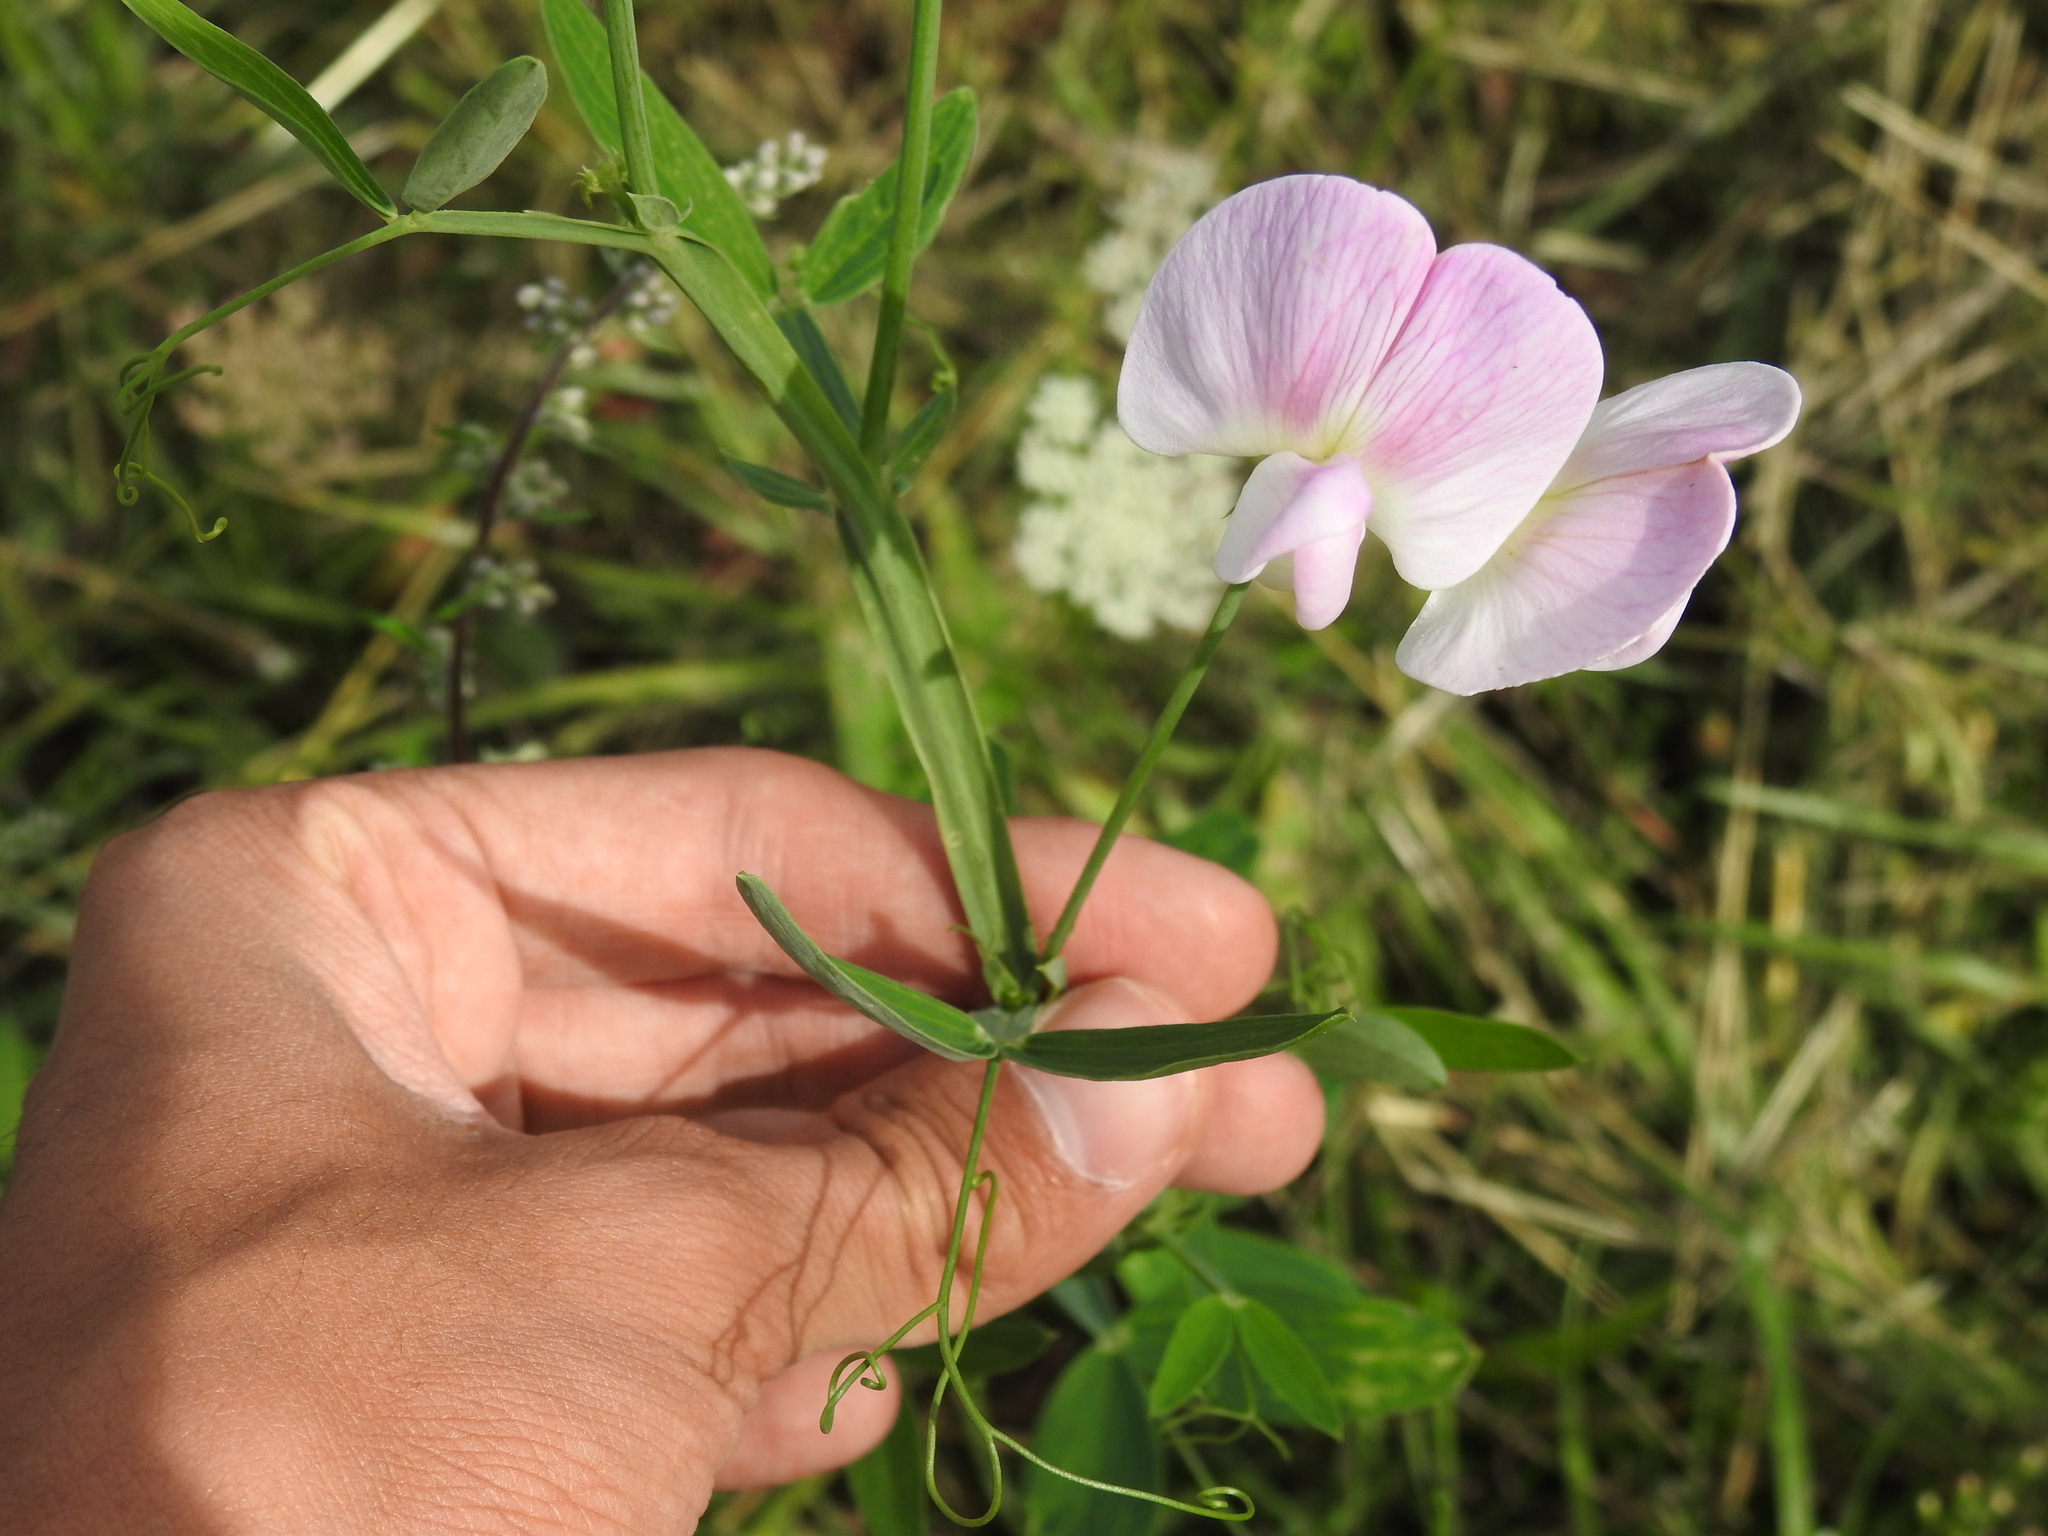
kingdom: Plantae
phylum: Tracheophyta
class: Magnoliopsida
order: Fabales
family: Fabaceae
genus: Lathyrus
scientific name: Lathyrus latifolius
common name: Perennial pea
